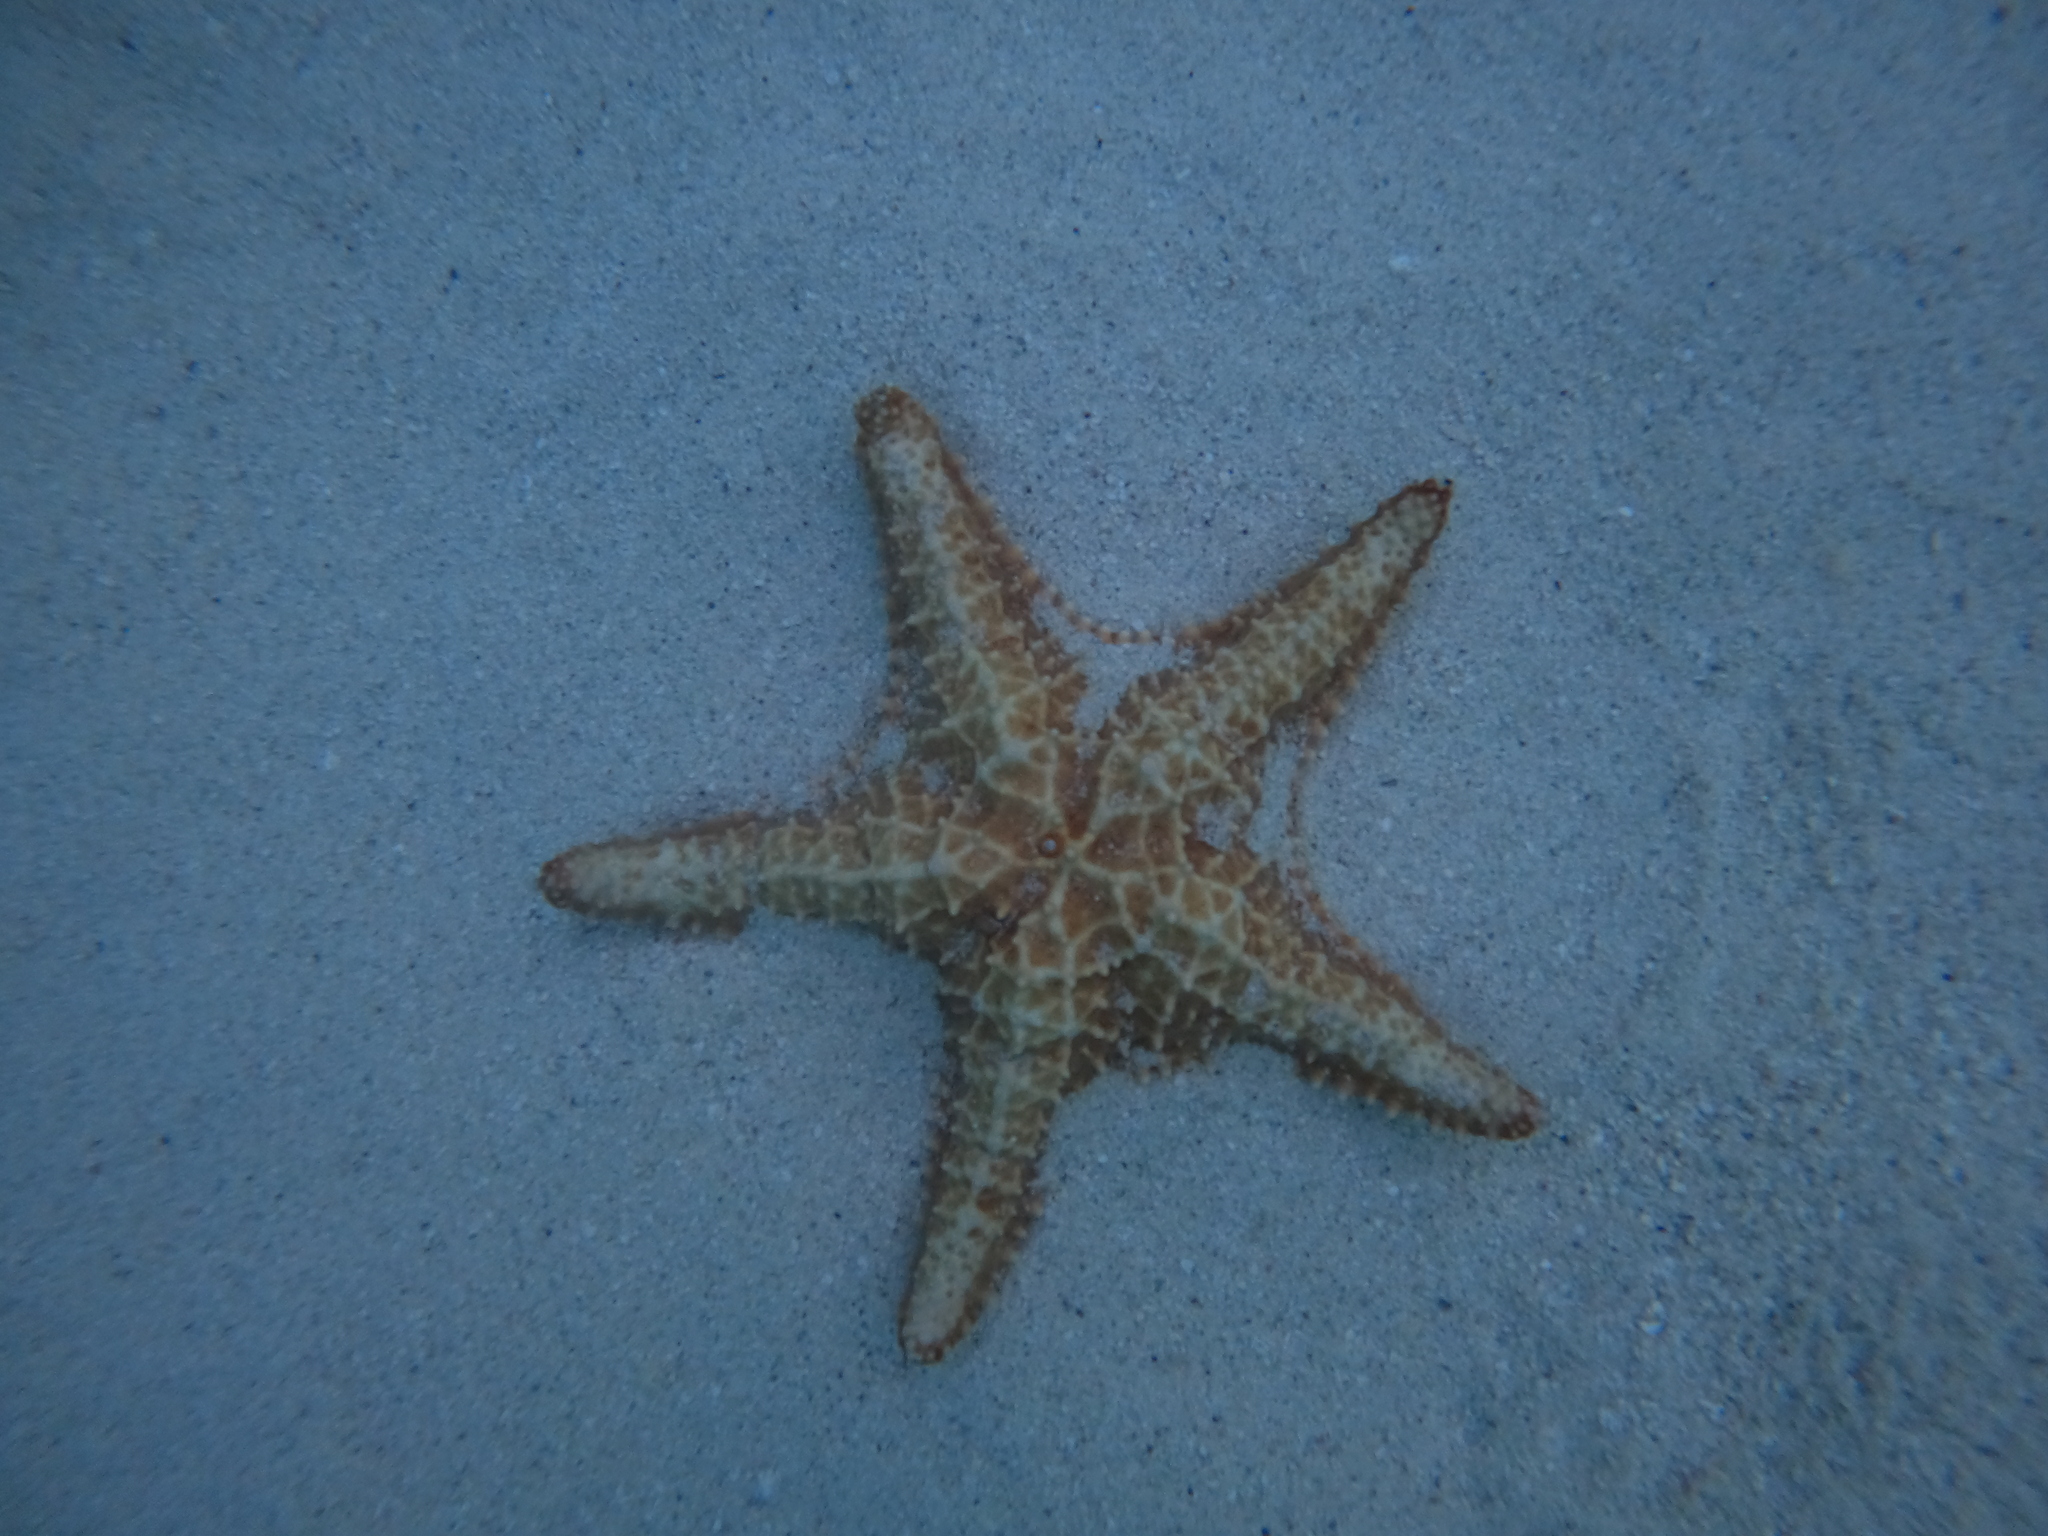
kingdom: Animalia
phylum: Echinodermata
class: Asteroidea
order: Valvatida
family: Oreasteridae
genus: Oreaster
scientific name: Oreaster reticulatus
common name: Cushion sea star
